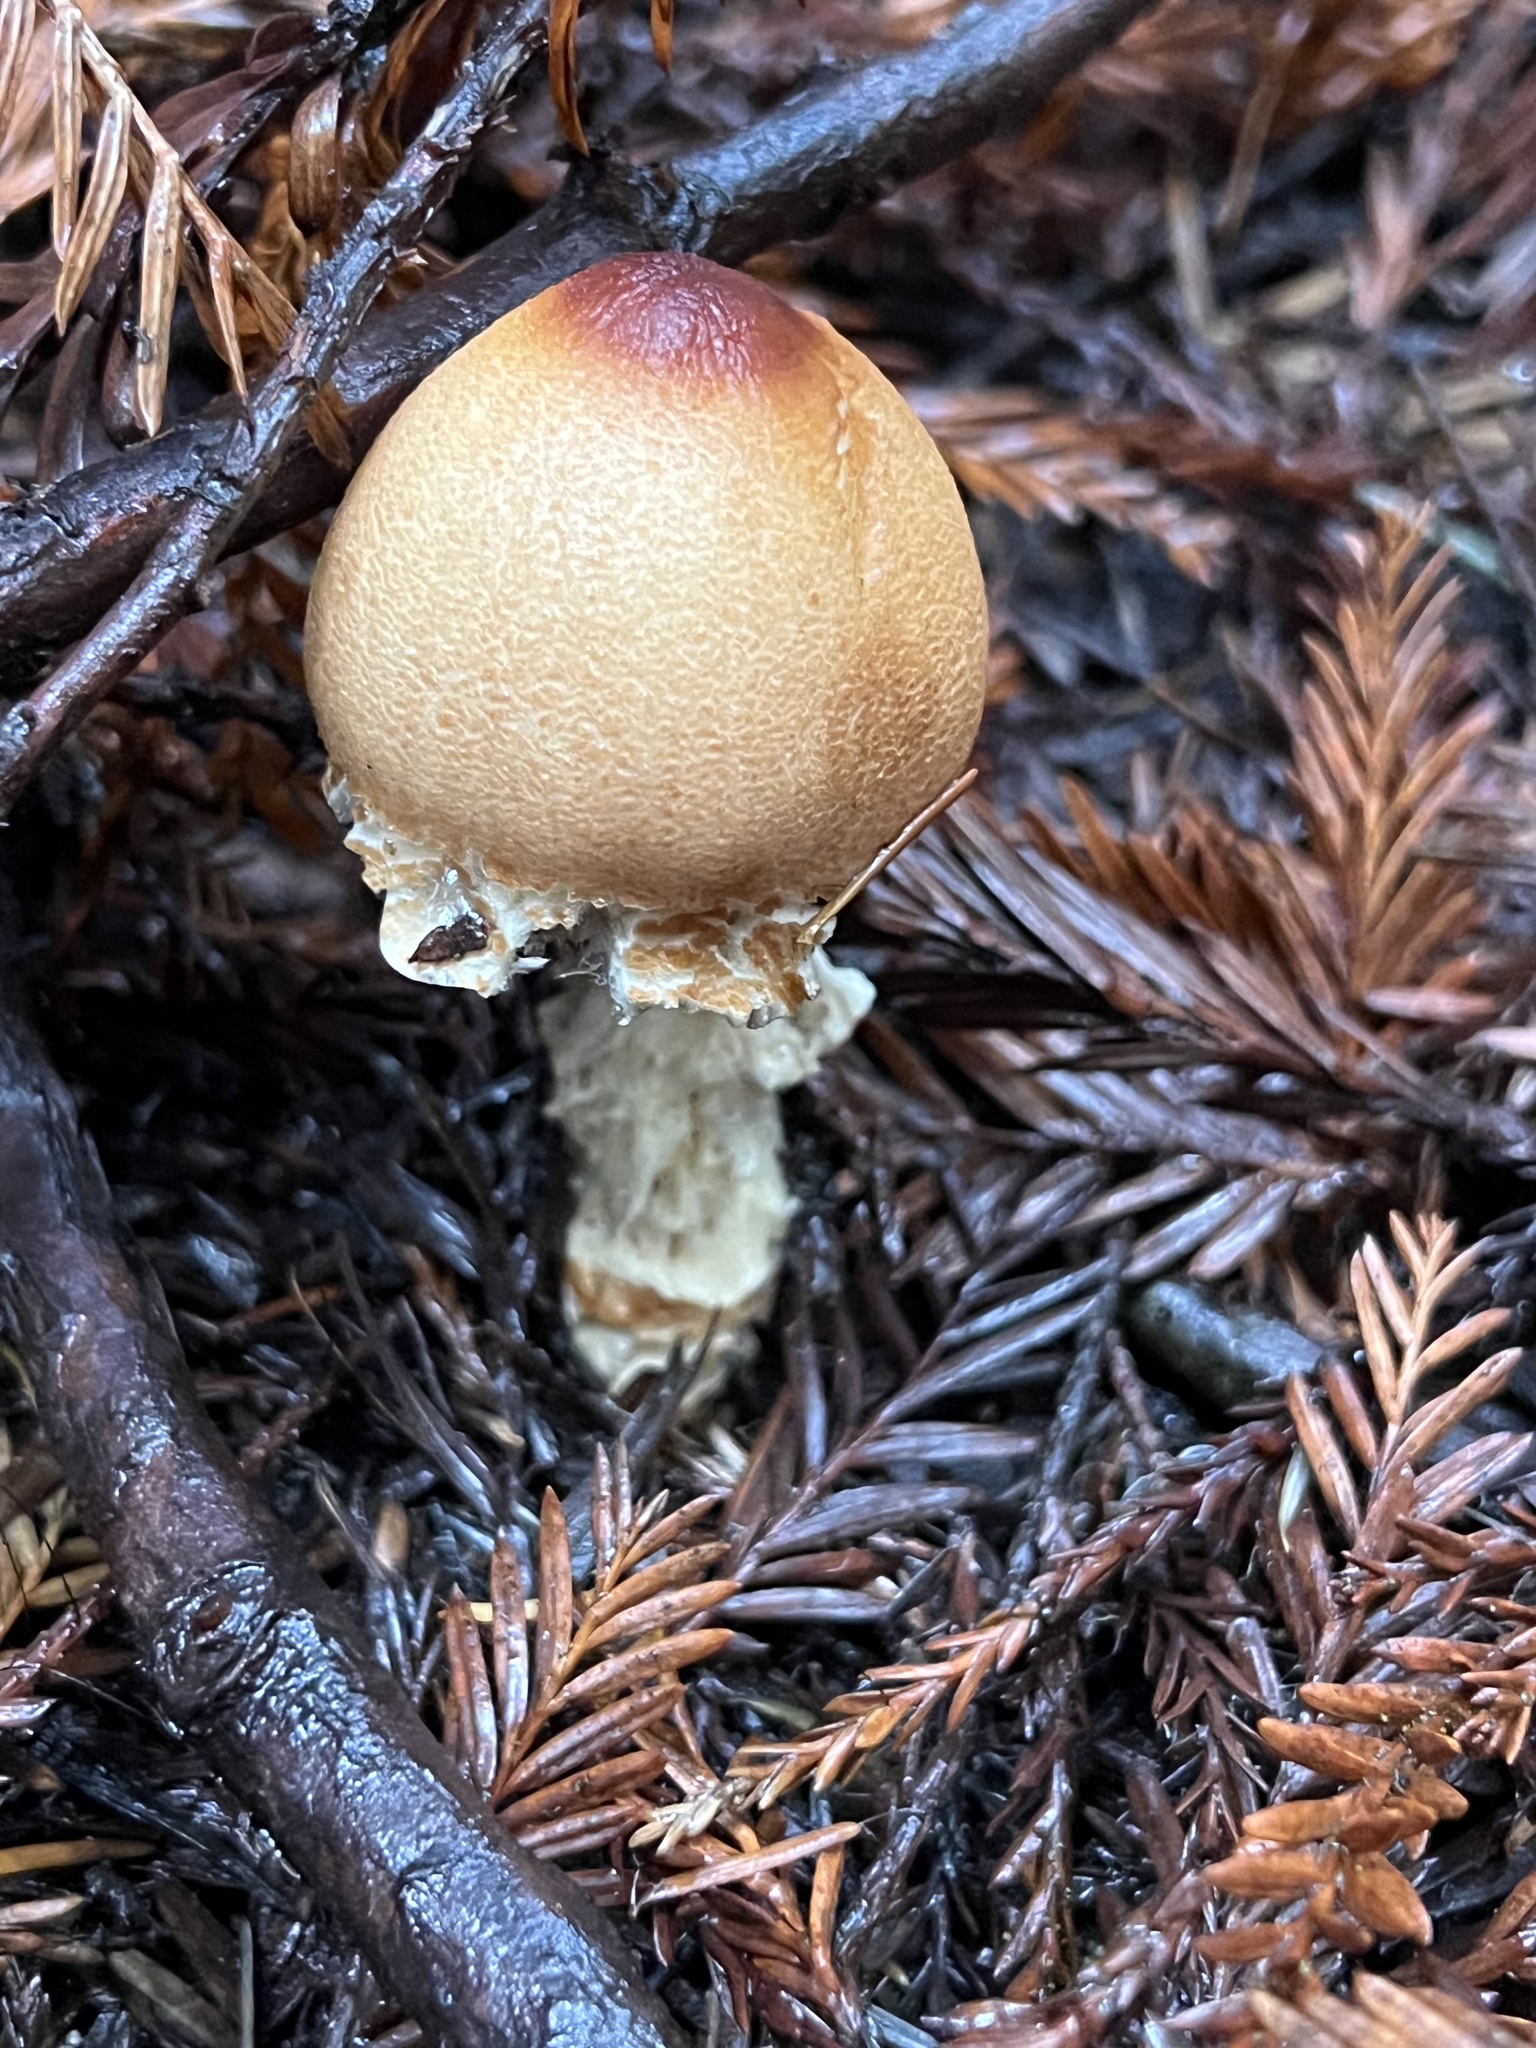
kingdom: Fungi
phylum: Basidiomycota
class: Agaricomycetes
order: Agaricales
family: Agaricaceae
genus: Lepiota
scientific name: Lepiota magnispora
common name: Yellowfoot dapperling
